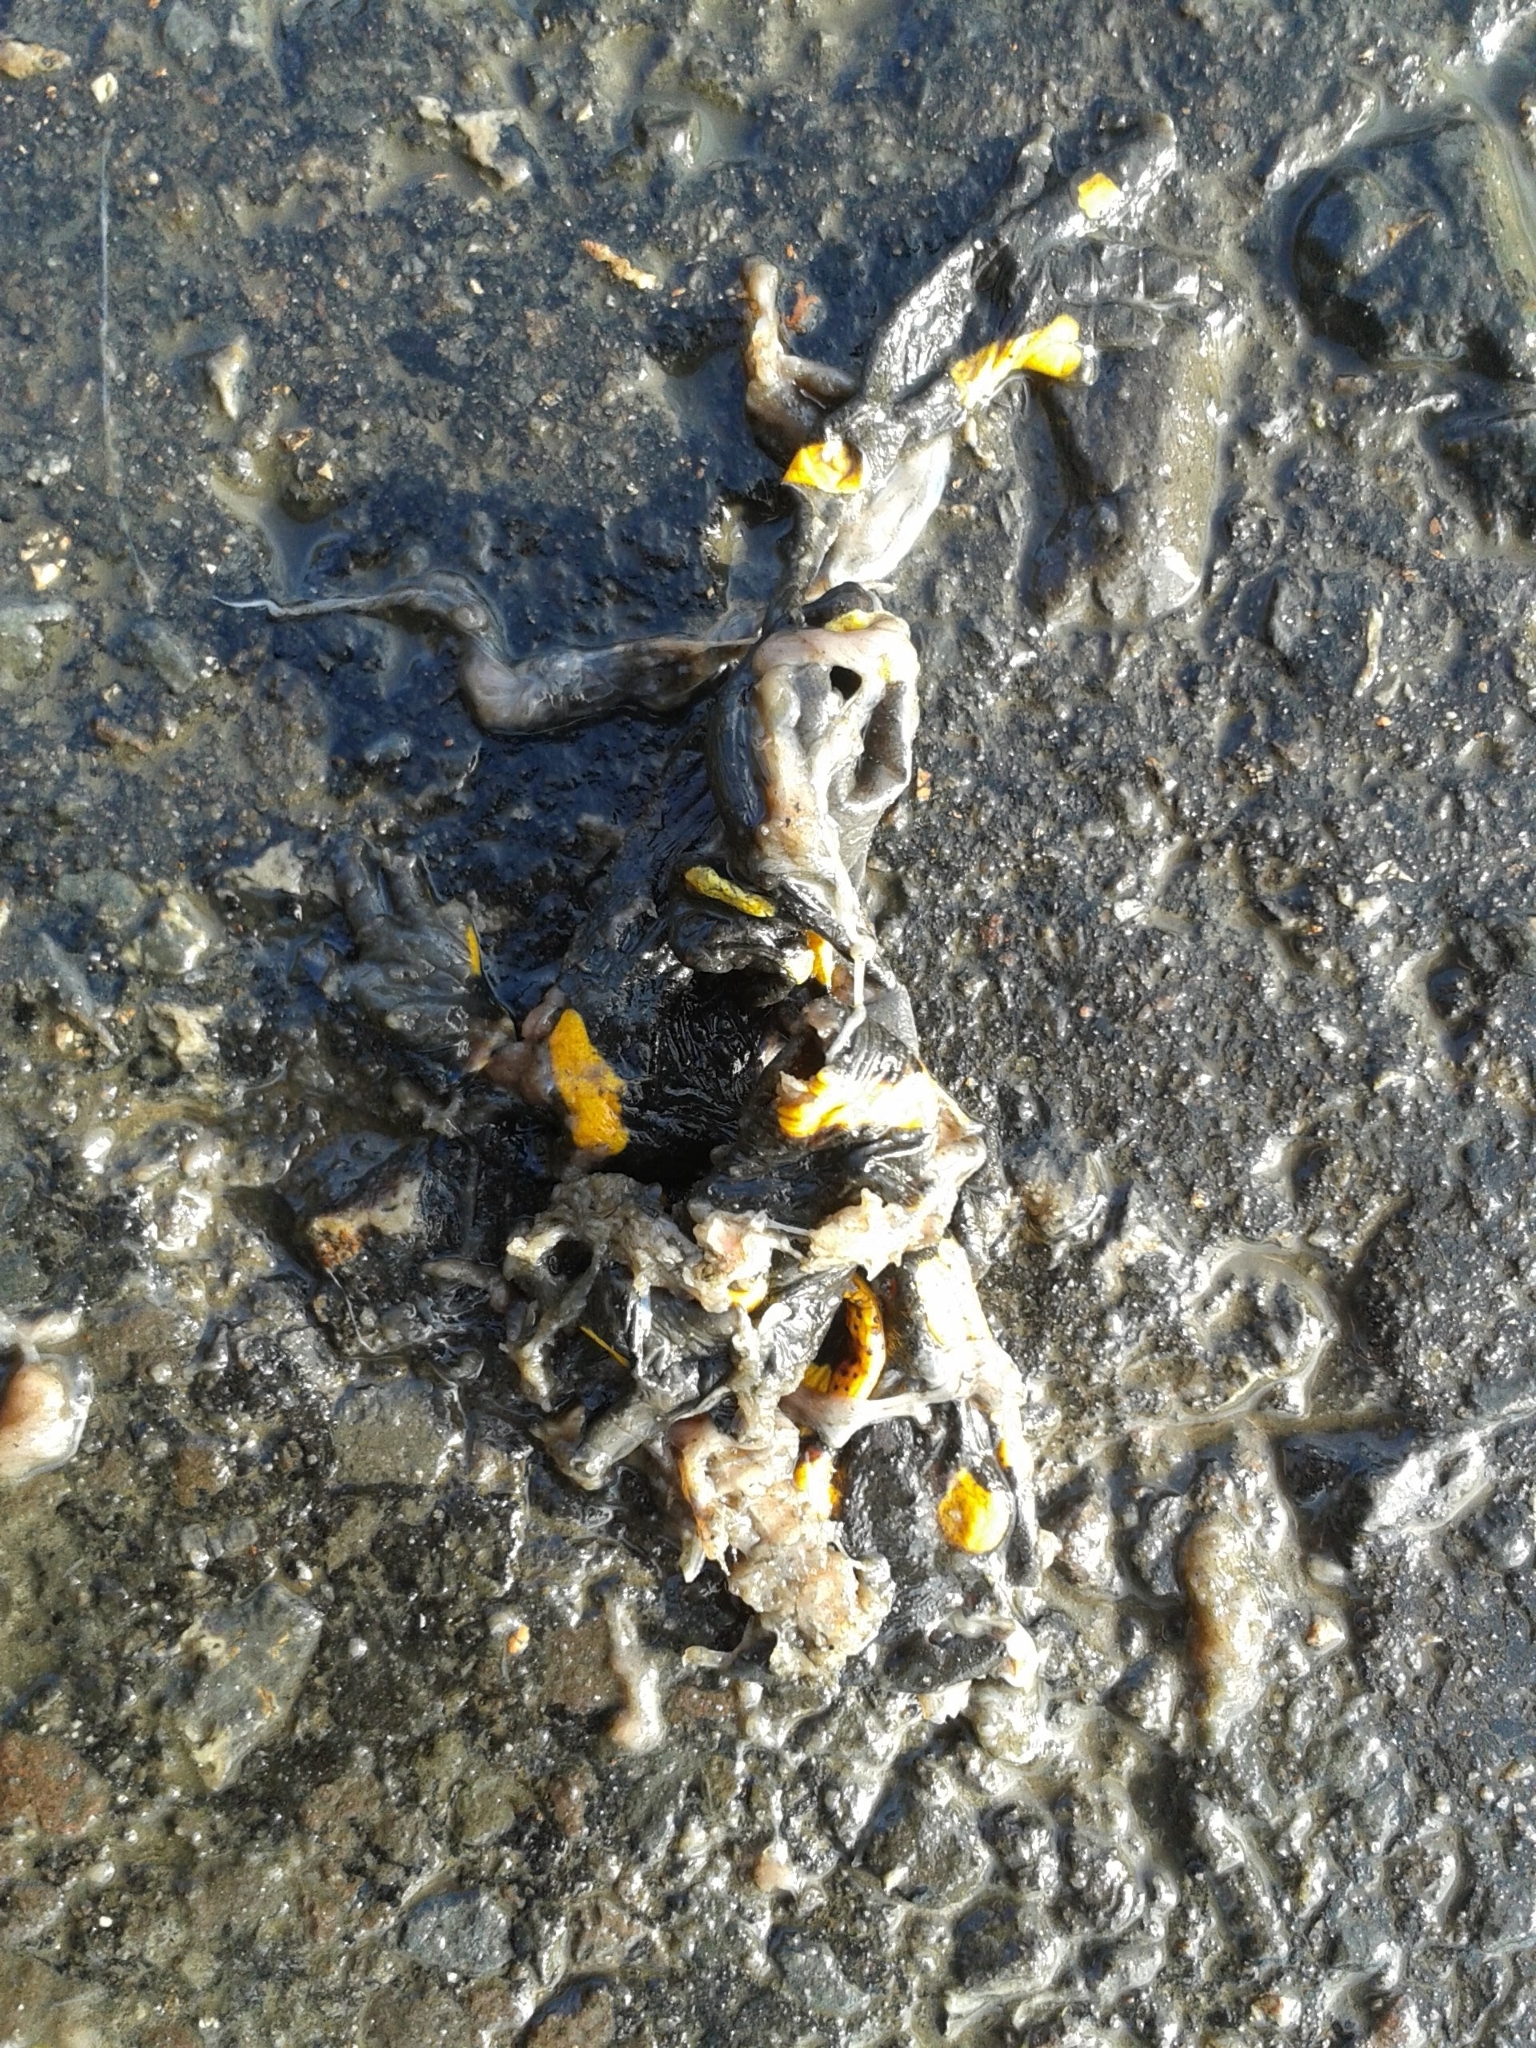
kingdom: Animalia
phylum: Chordata
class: Amphibia
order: Caudata
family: Salamandridae
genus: Salamandra
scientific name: Salamandra salamandra
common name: Fire salamander
